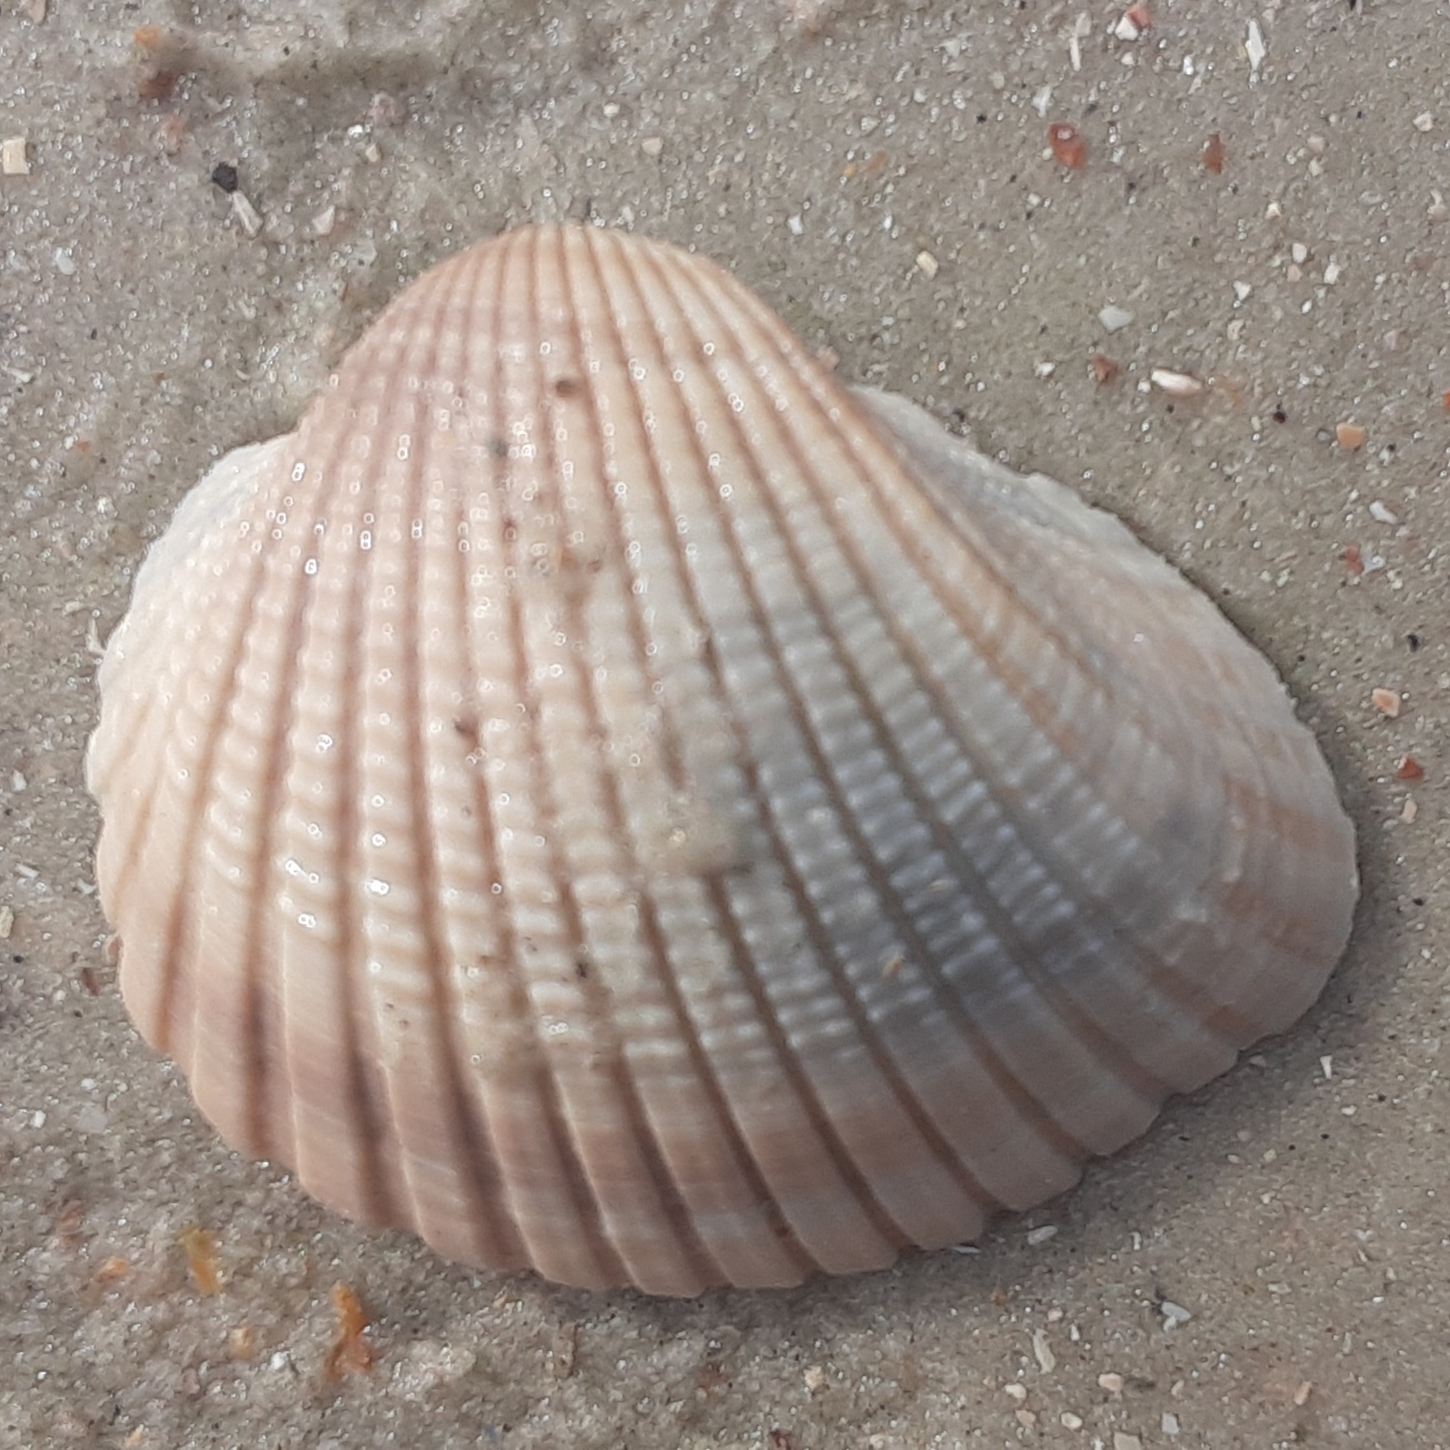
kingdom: Animalia
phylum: Mollusca
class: Bivalvia
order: Arcida
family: Arcidae
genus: Anadara
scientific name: Anadara brasiliana
